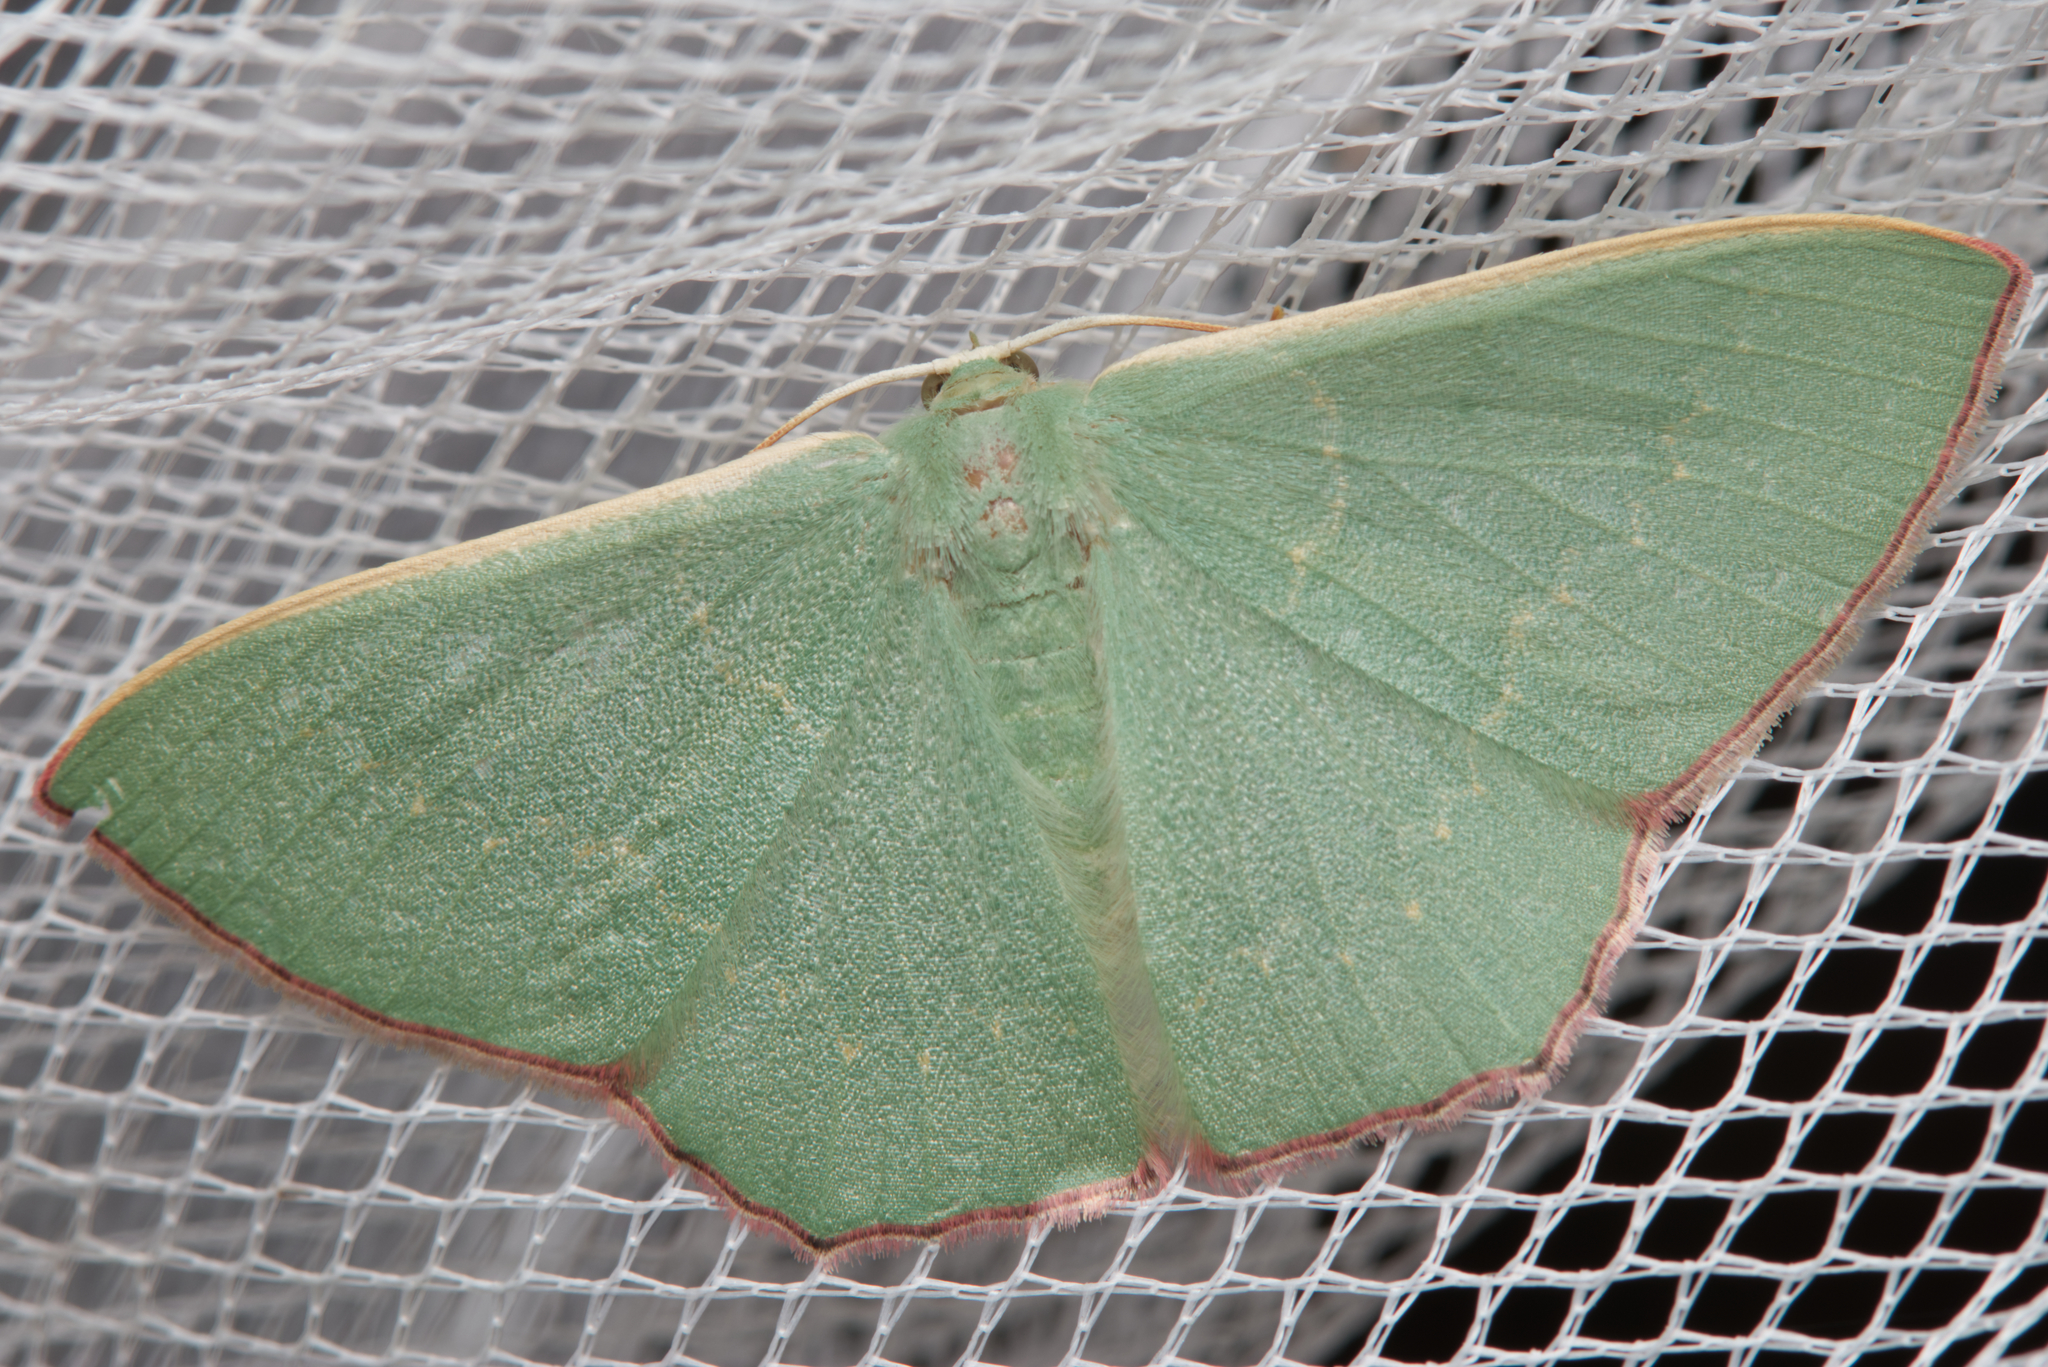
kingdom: Animalia
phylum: Arthropoda
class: Insecta
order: Lepidoptera
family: Geometridae
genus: Prasinocyma
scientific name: Prasinocyma semicrocea
